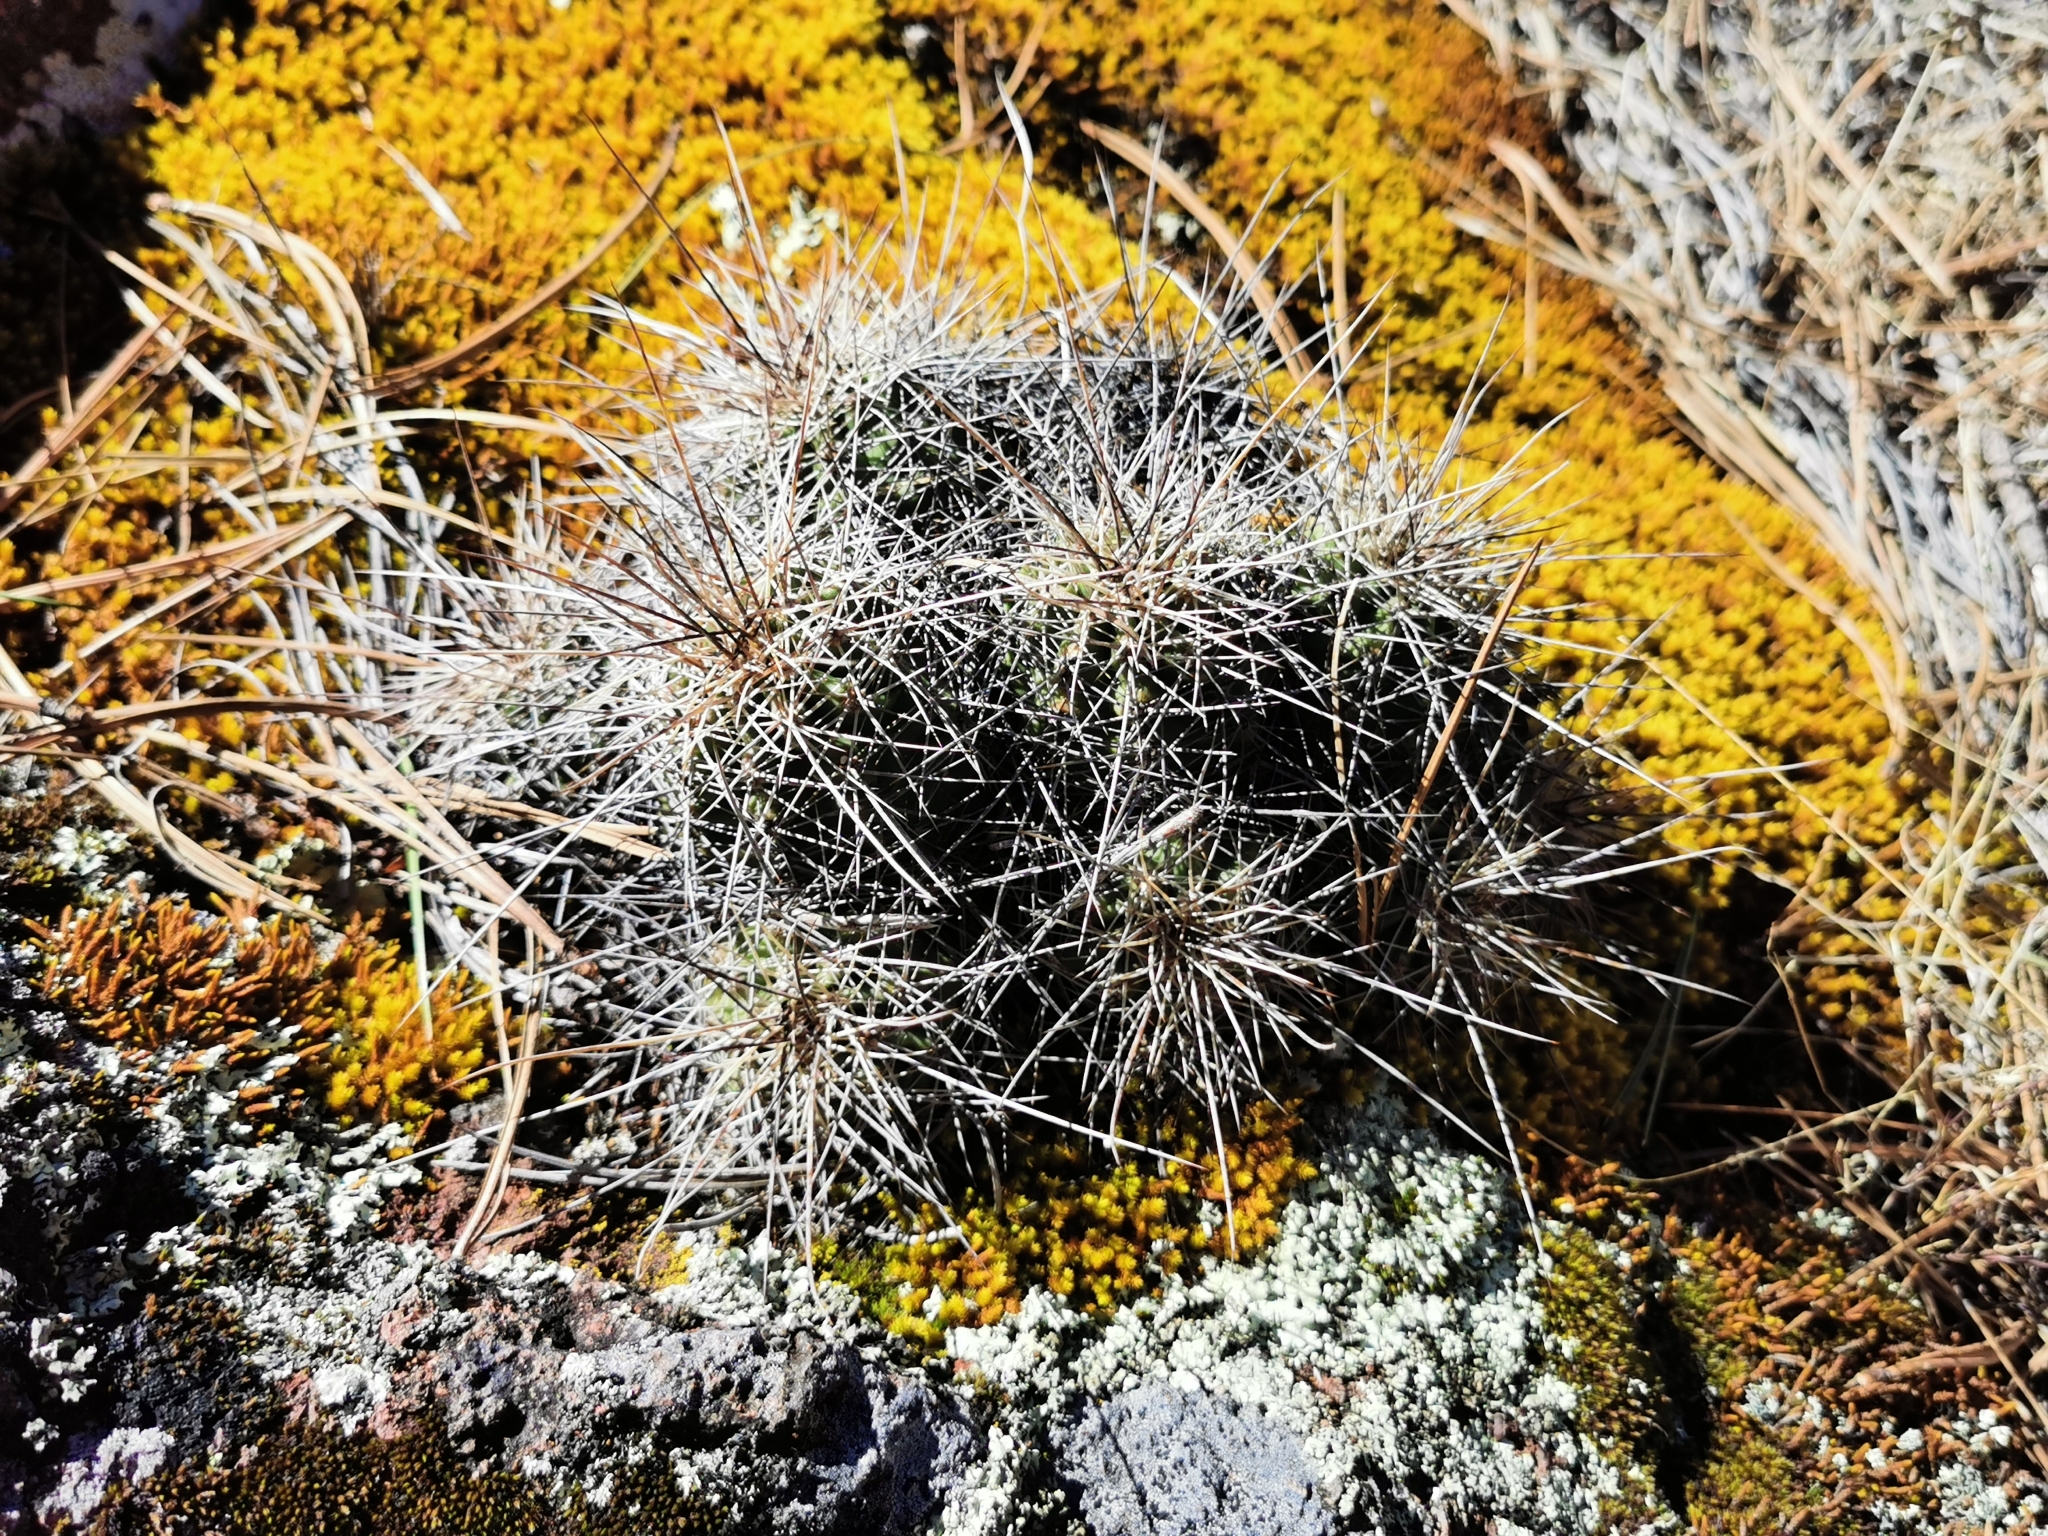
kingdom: Plantae
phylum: Tracheophyta
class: Magnoliopsida
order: Caryophyllales
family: Cactaceae
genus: Echinocereus
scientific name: Echinocereus polyacanthus
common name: Mojave mound cactus
